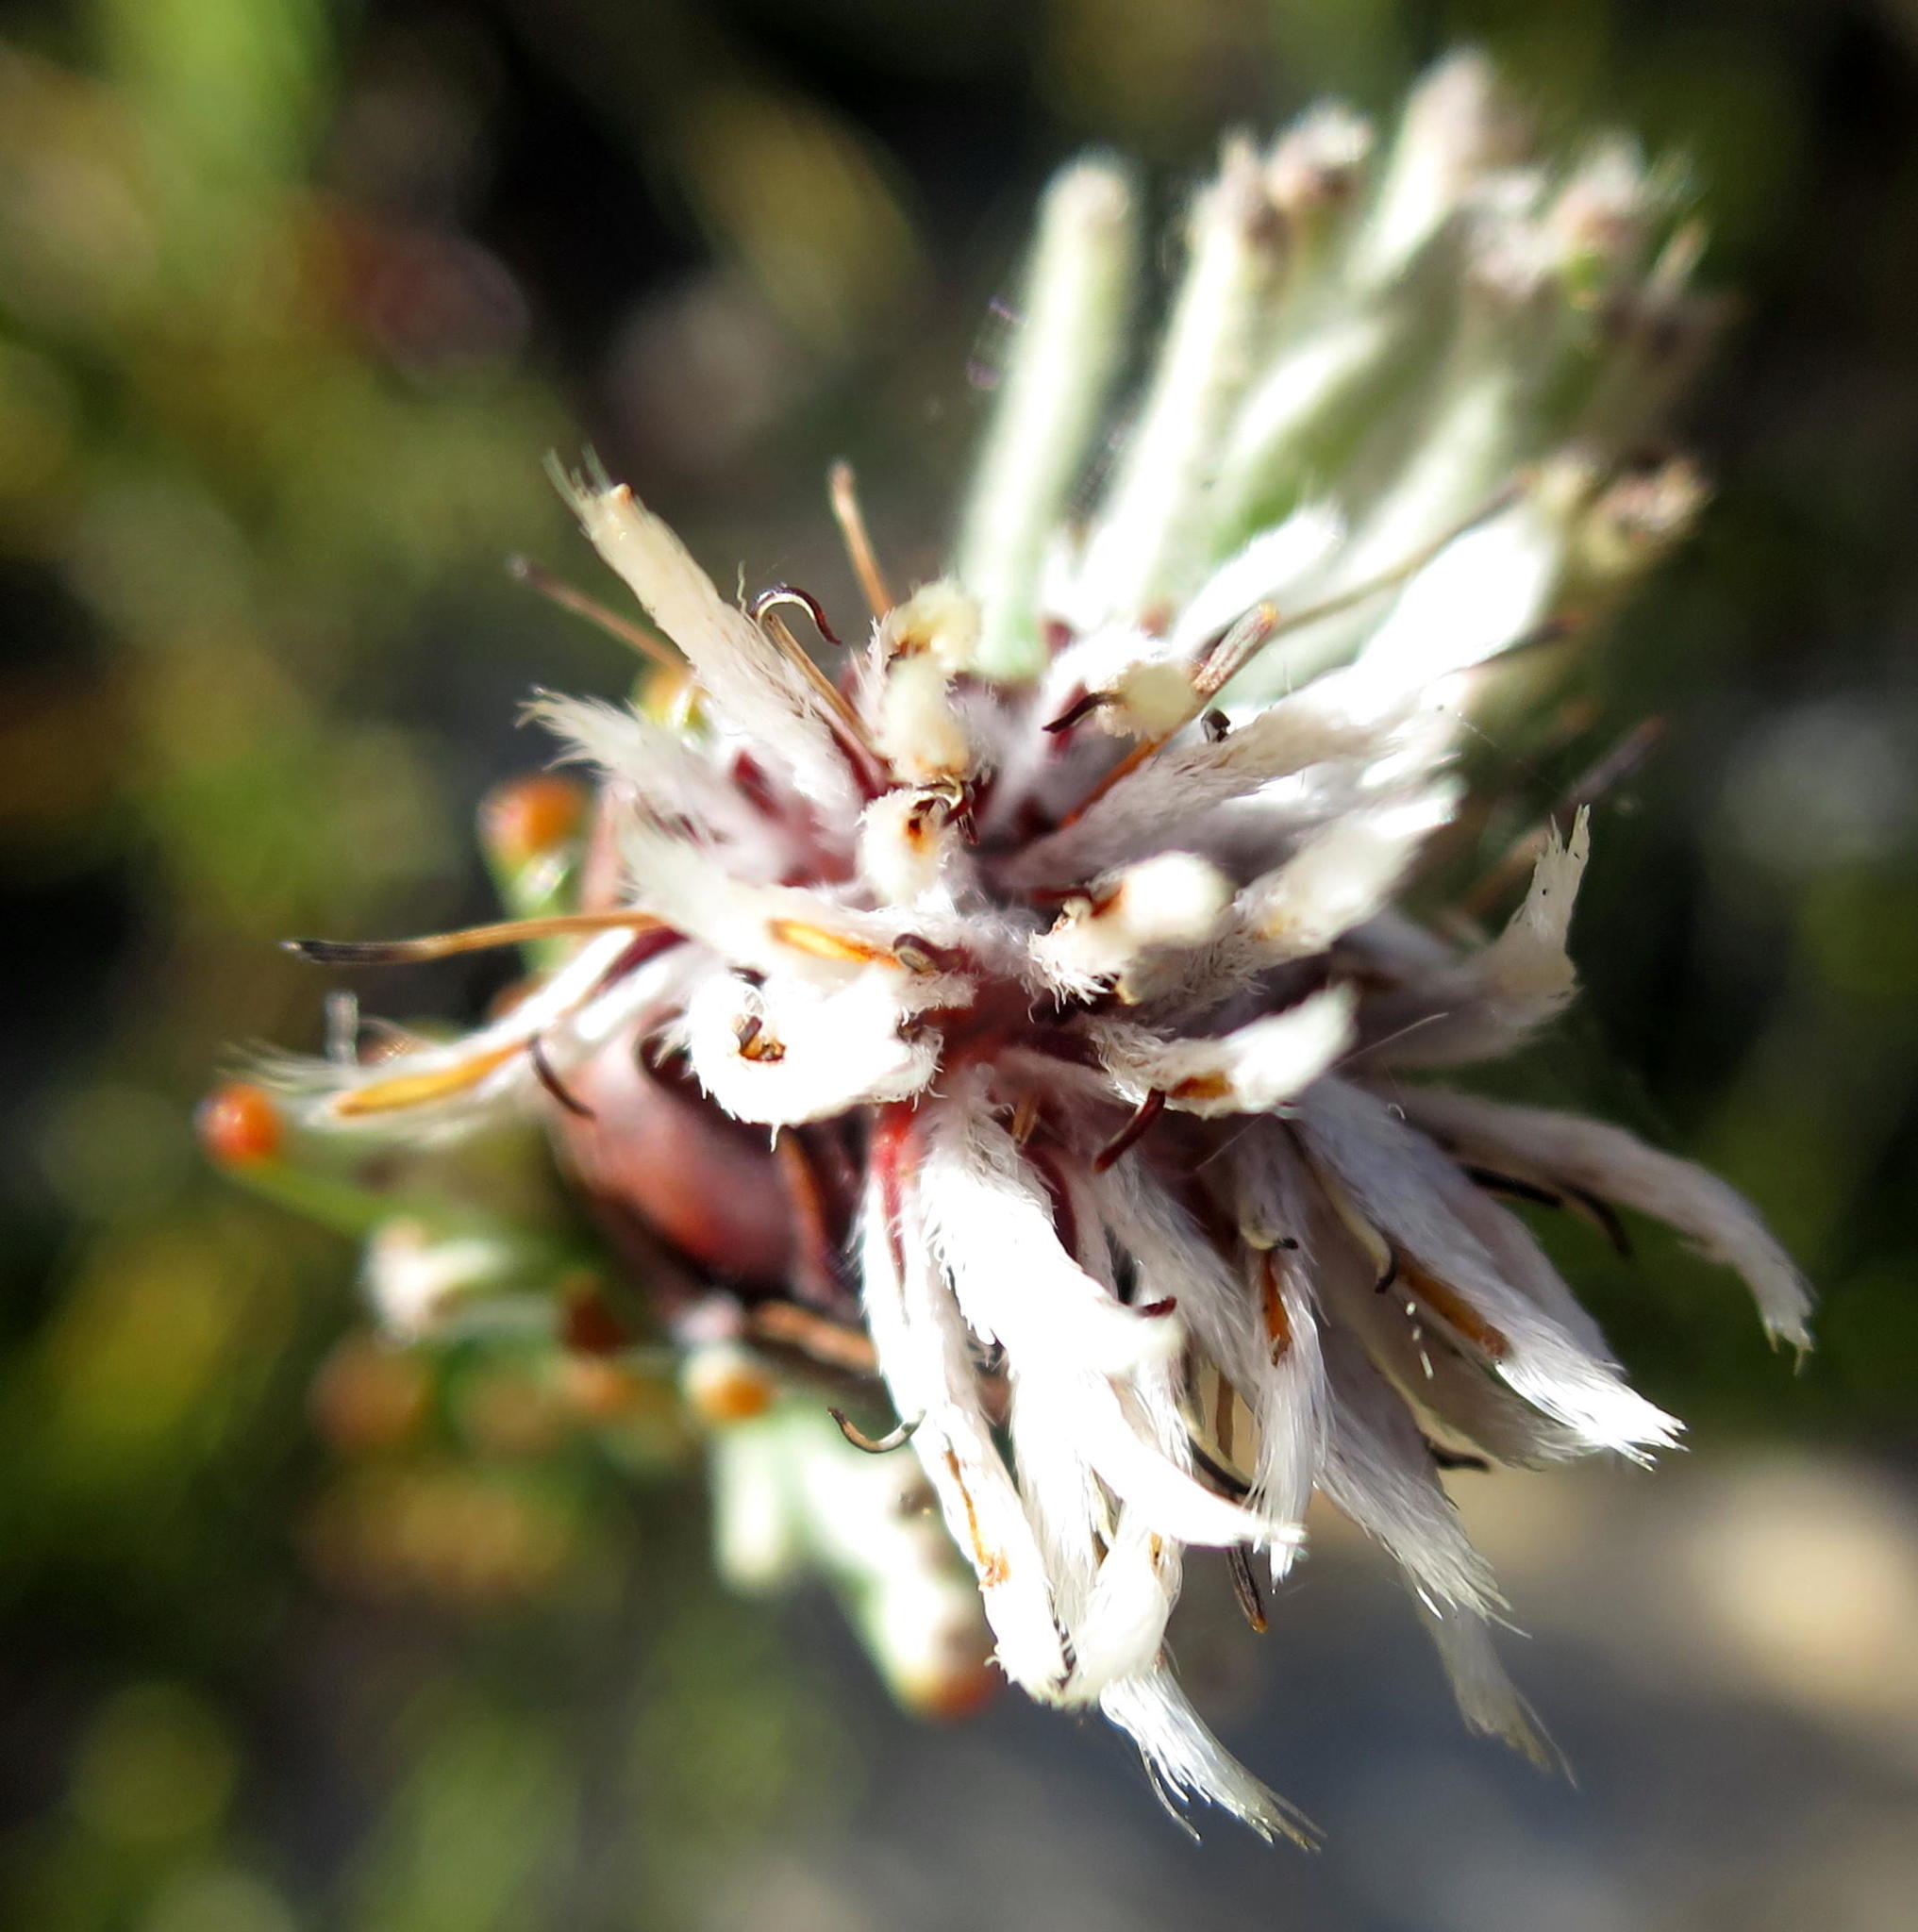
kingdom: Plantae
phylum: Tracheophyta
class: Magnoliopsida
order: Proteales
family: Proteaceae
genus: Paranomus
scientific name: Paranomus centaureoides
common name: Ladismith sceptre
